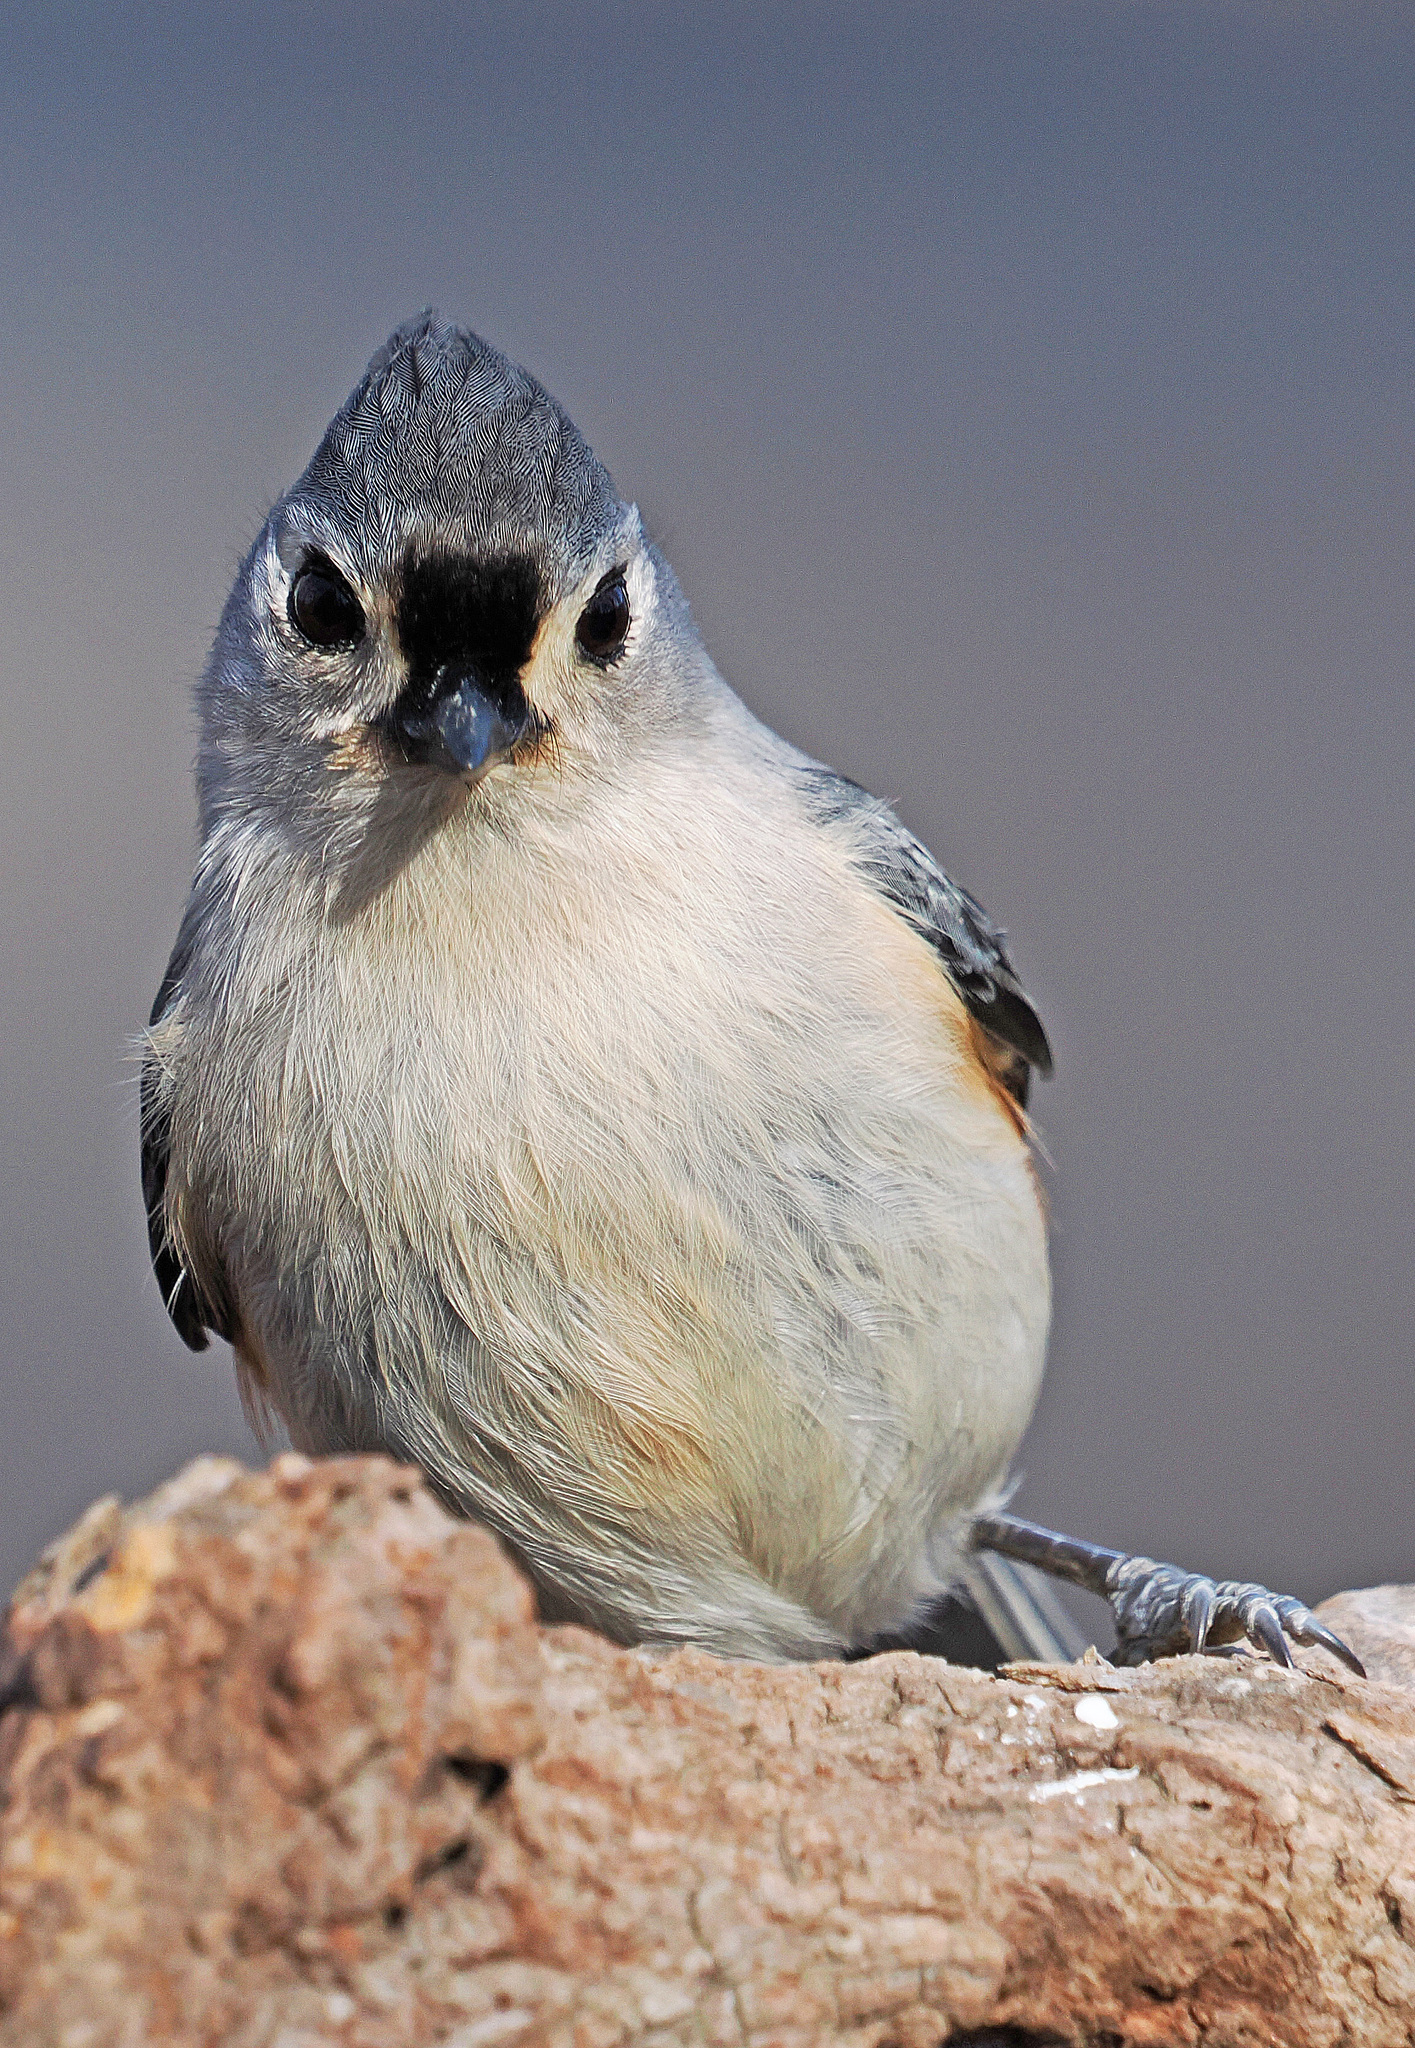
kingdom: Animalia
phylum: Chordata
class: Aves
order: Passeriformes
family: Paridae
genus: Baeolophus
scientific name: Baeolophus bicolor
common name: Tufted titmouse
